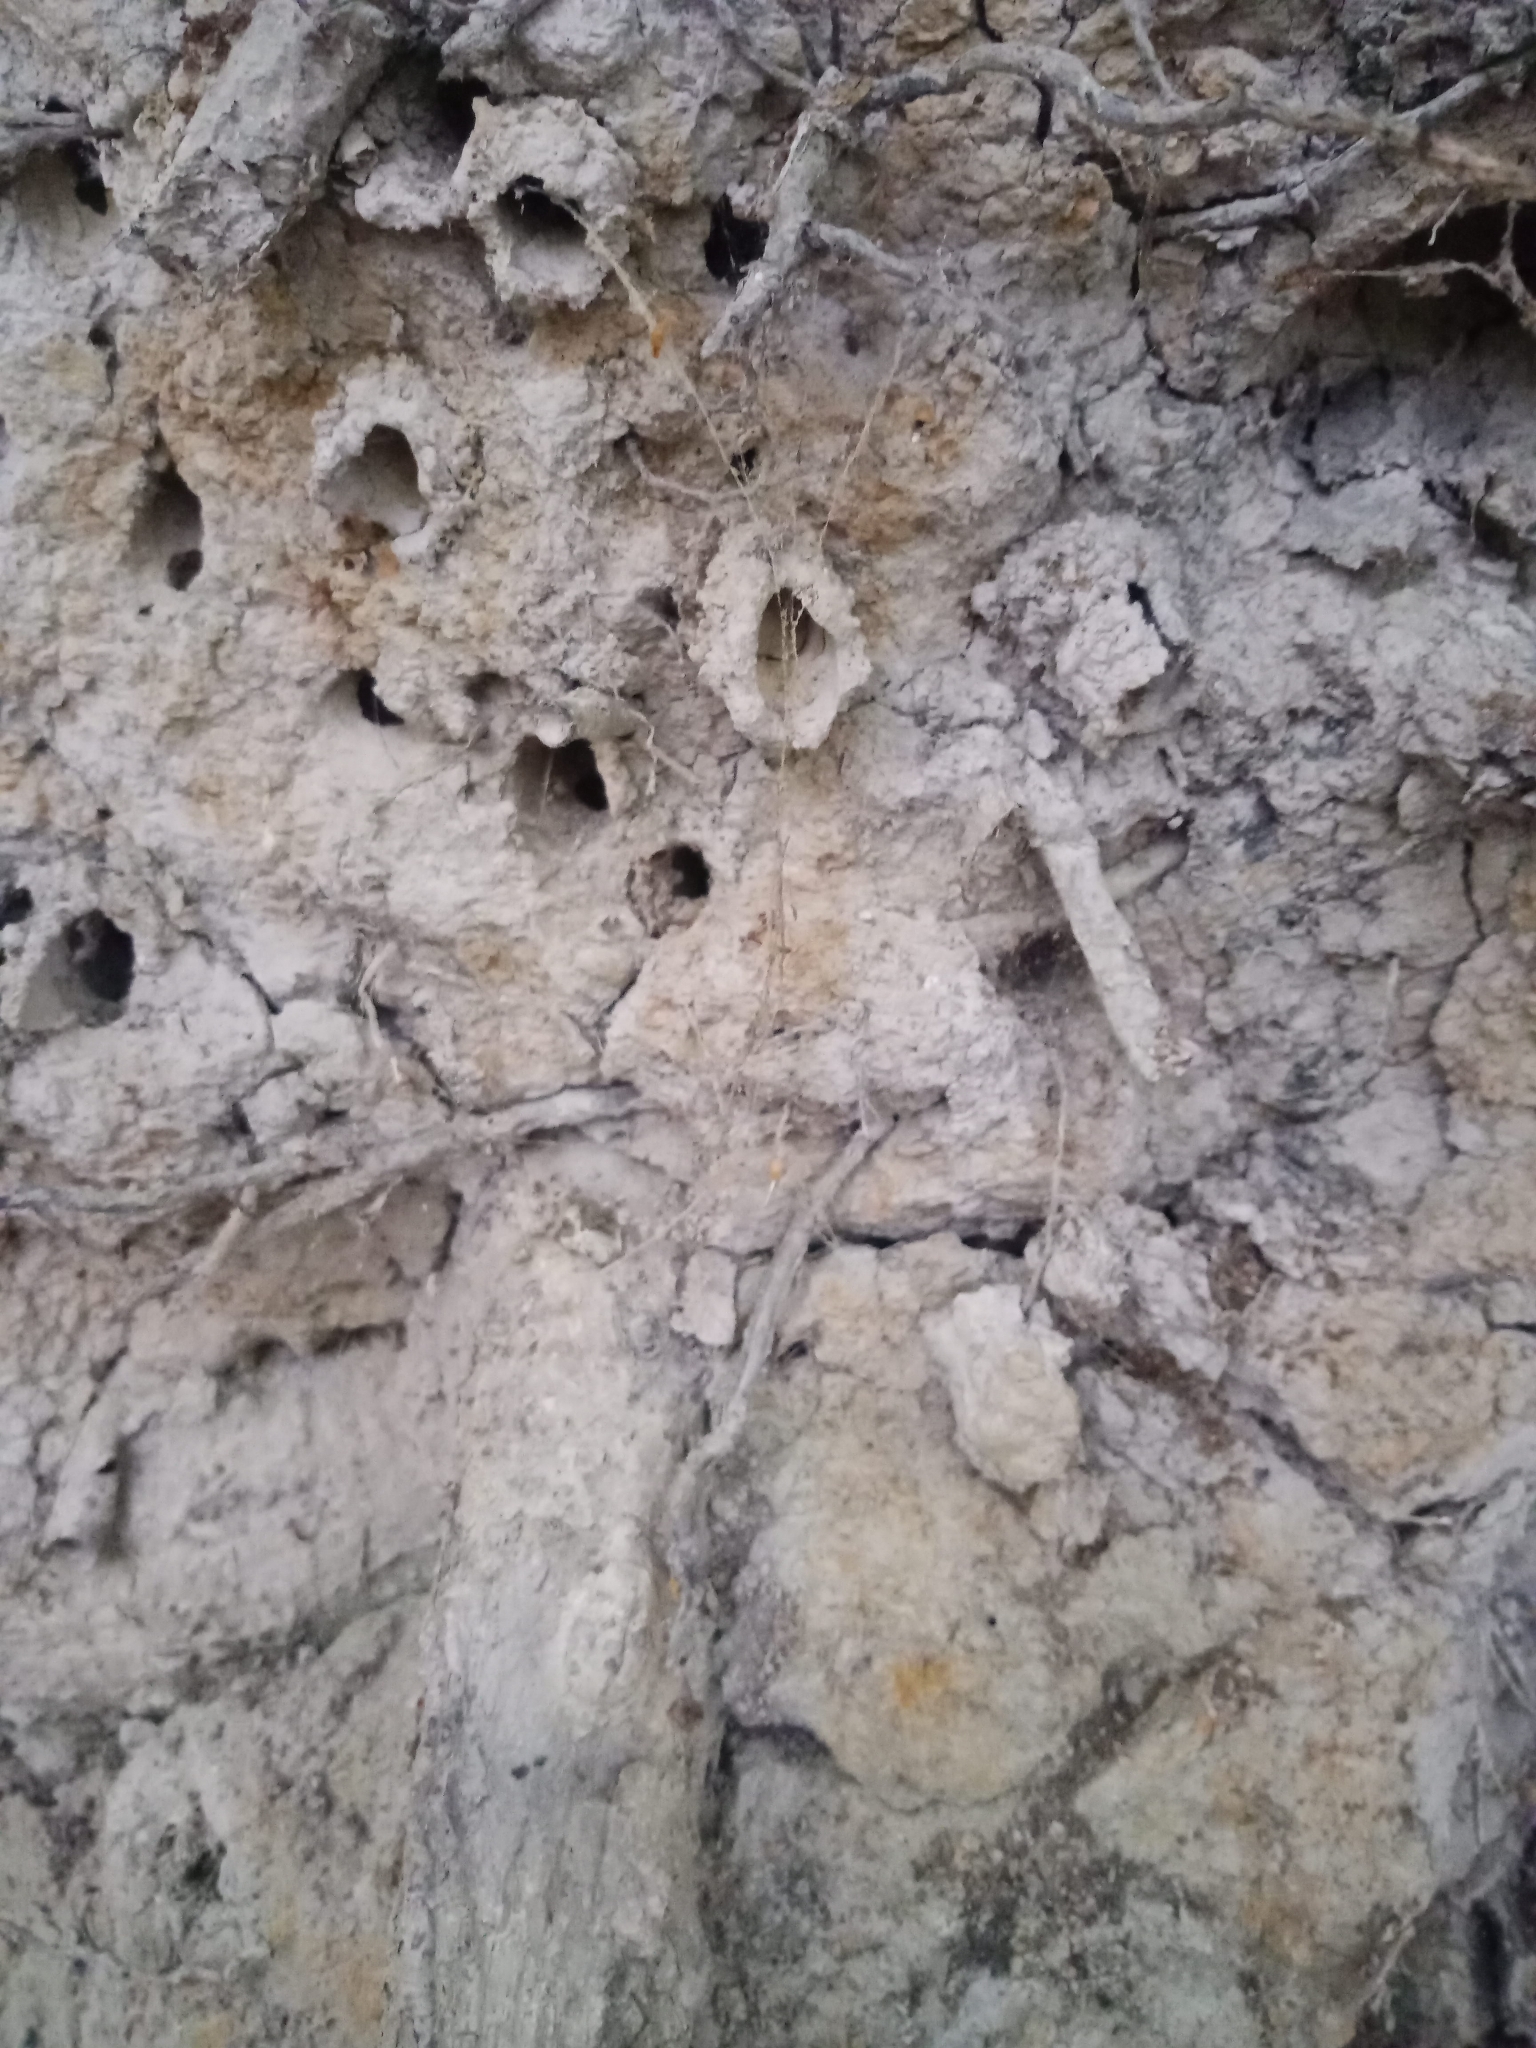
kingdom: Animalia
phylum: Arthropoda
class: Insecta
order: Hymenoptera
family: Apidae
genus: Anthophora
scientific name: Anthophora abrupta
